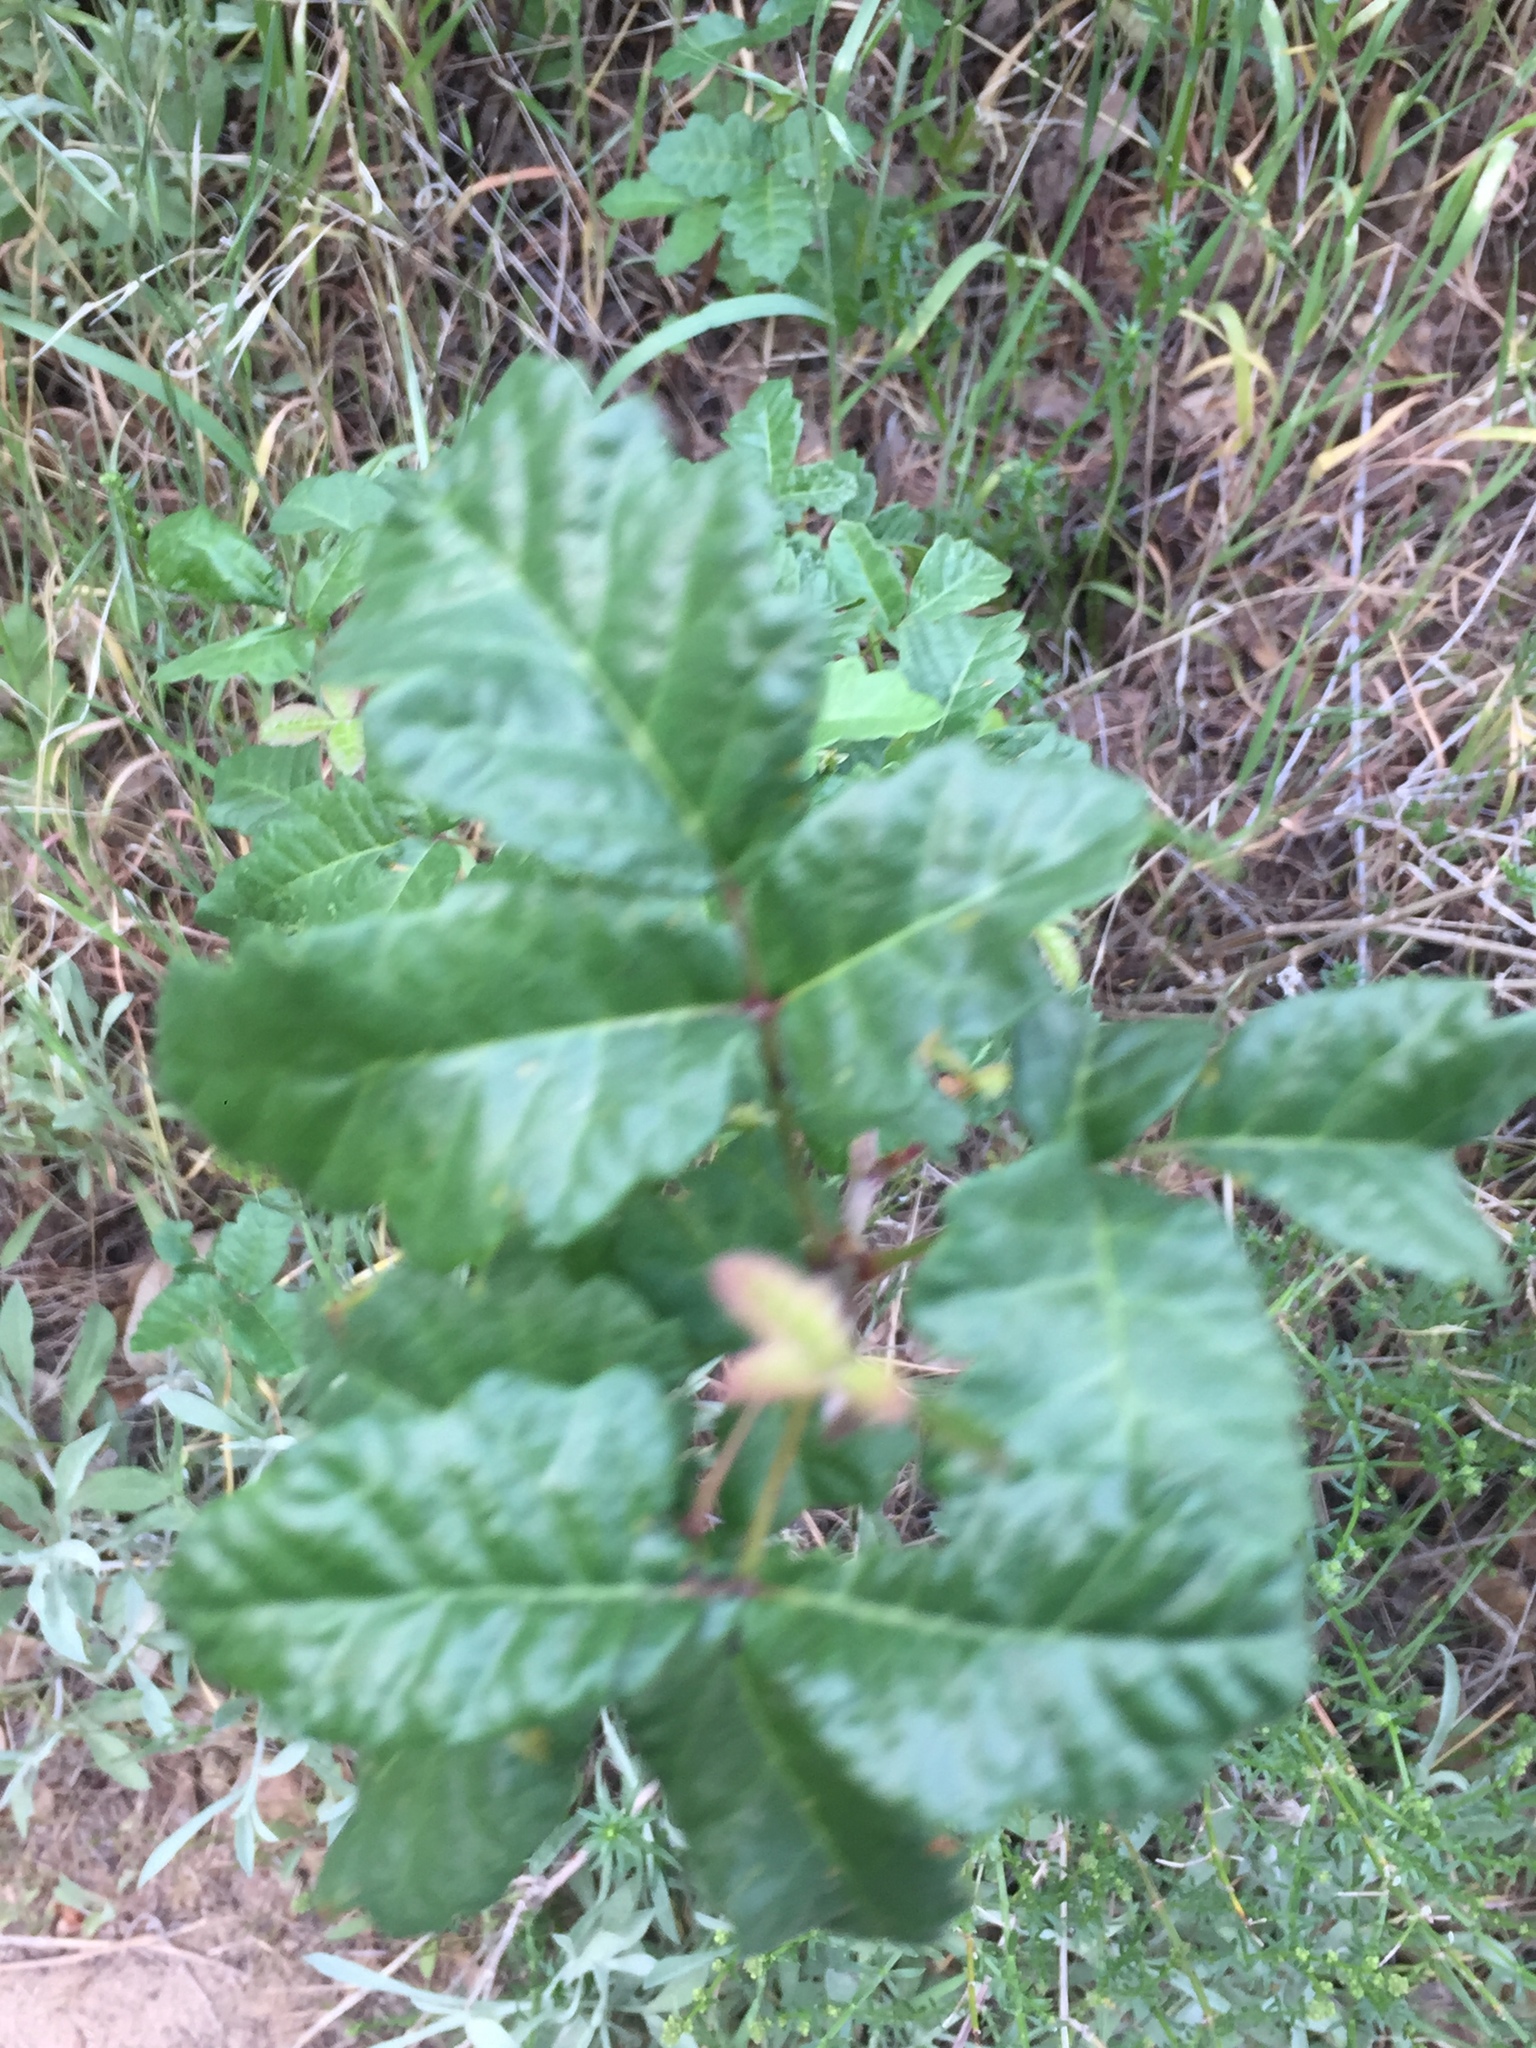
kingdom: Plantae
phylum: Tracheophyta
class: Magnoliopsida
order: Sapindales
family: Anacardiaceae
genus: Toxicodendron
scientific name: Toxicodendron diversilobum
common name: Pacific poison-oak
